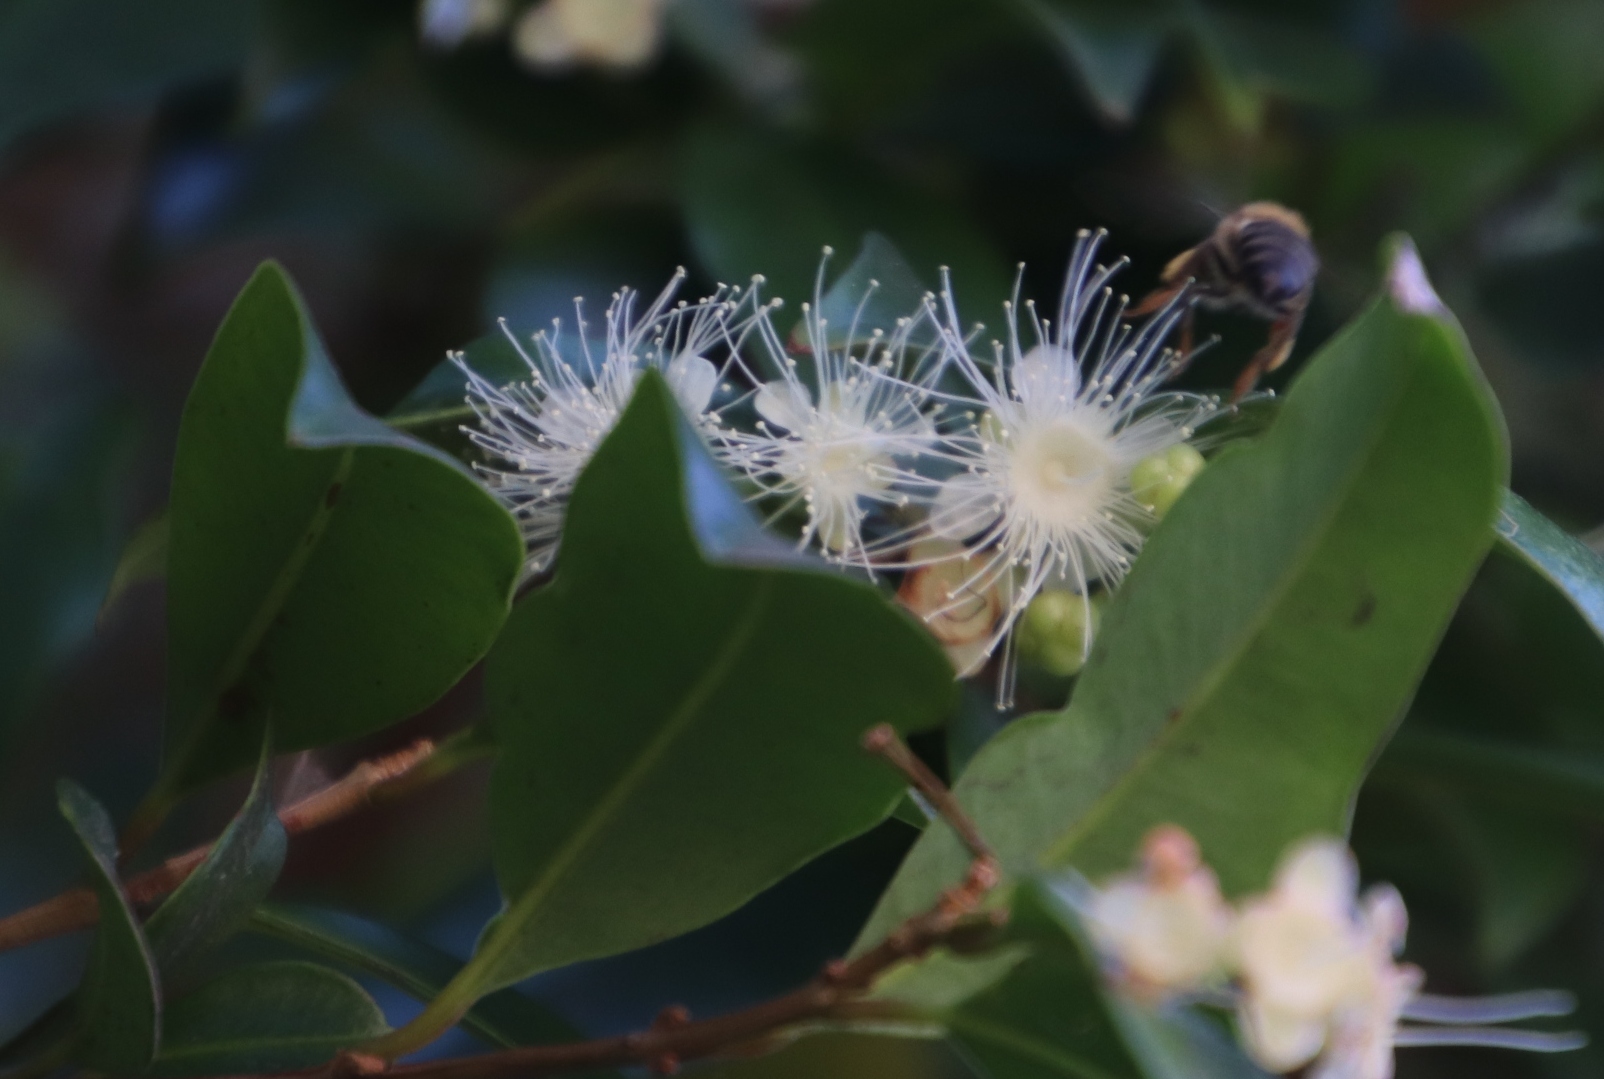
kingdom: Animalia
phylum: Arthropoda
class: Insecta
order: Hymenoptera
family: Apidae
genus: Apis
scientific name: Apis mellifera
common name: Honey bee
